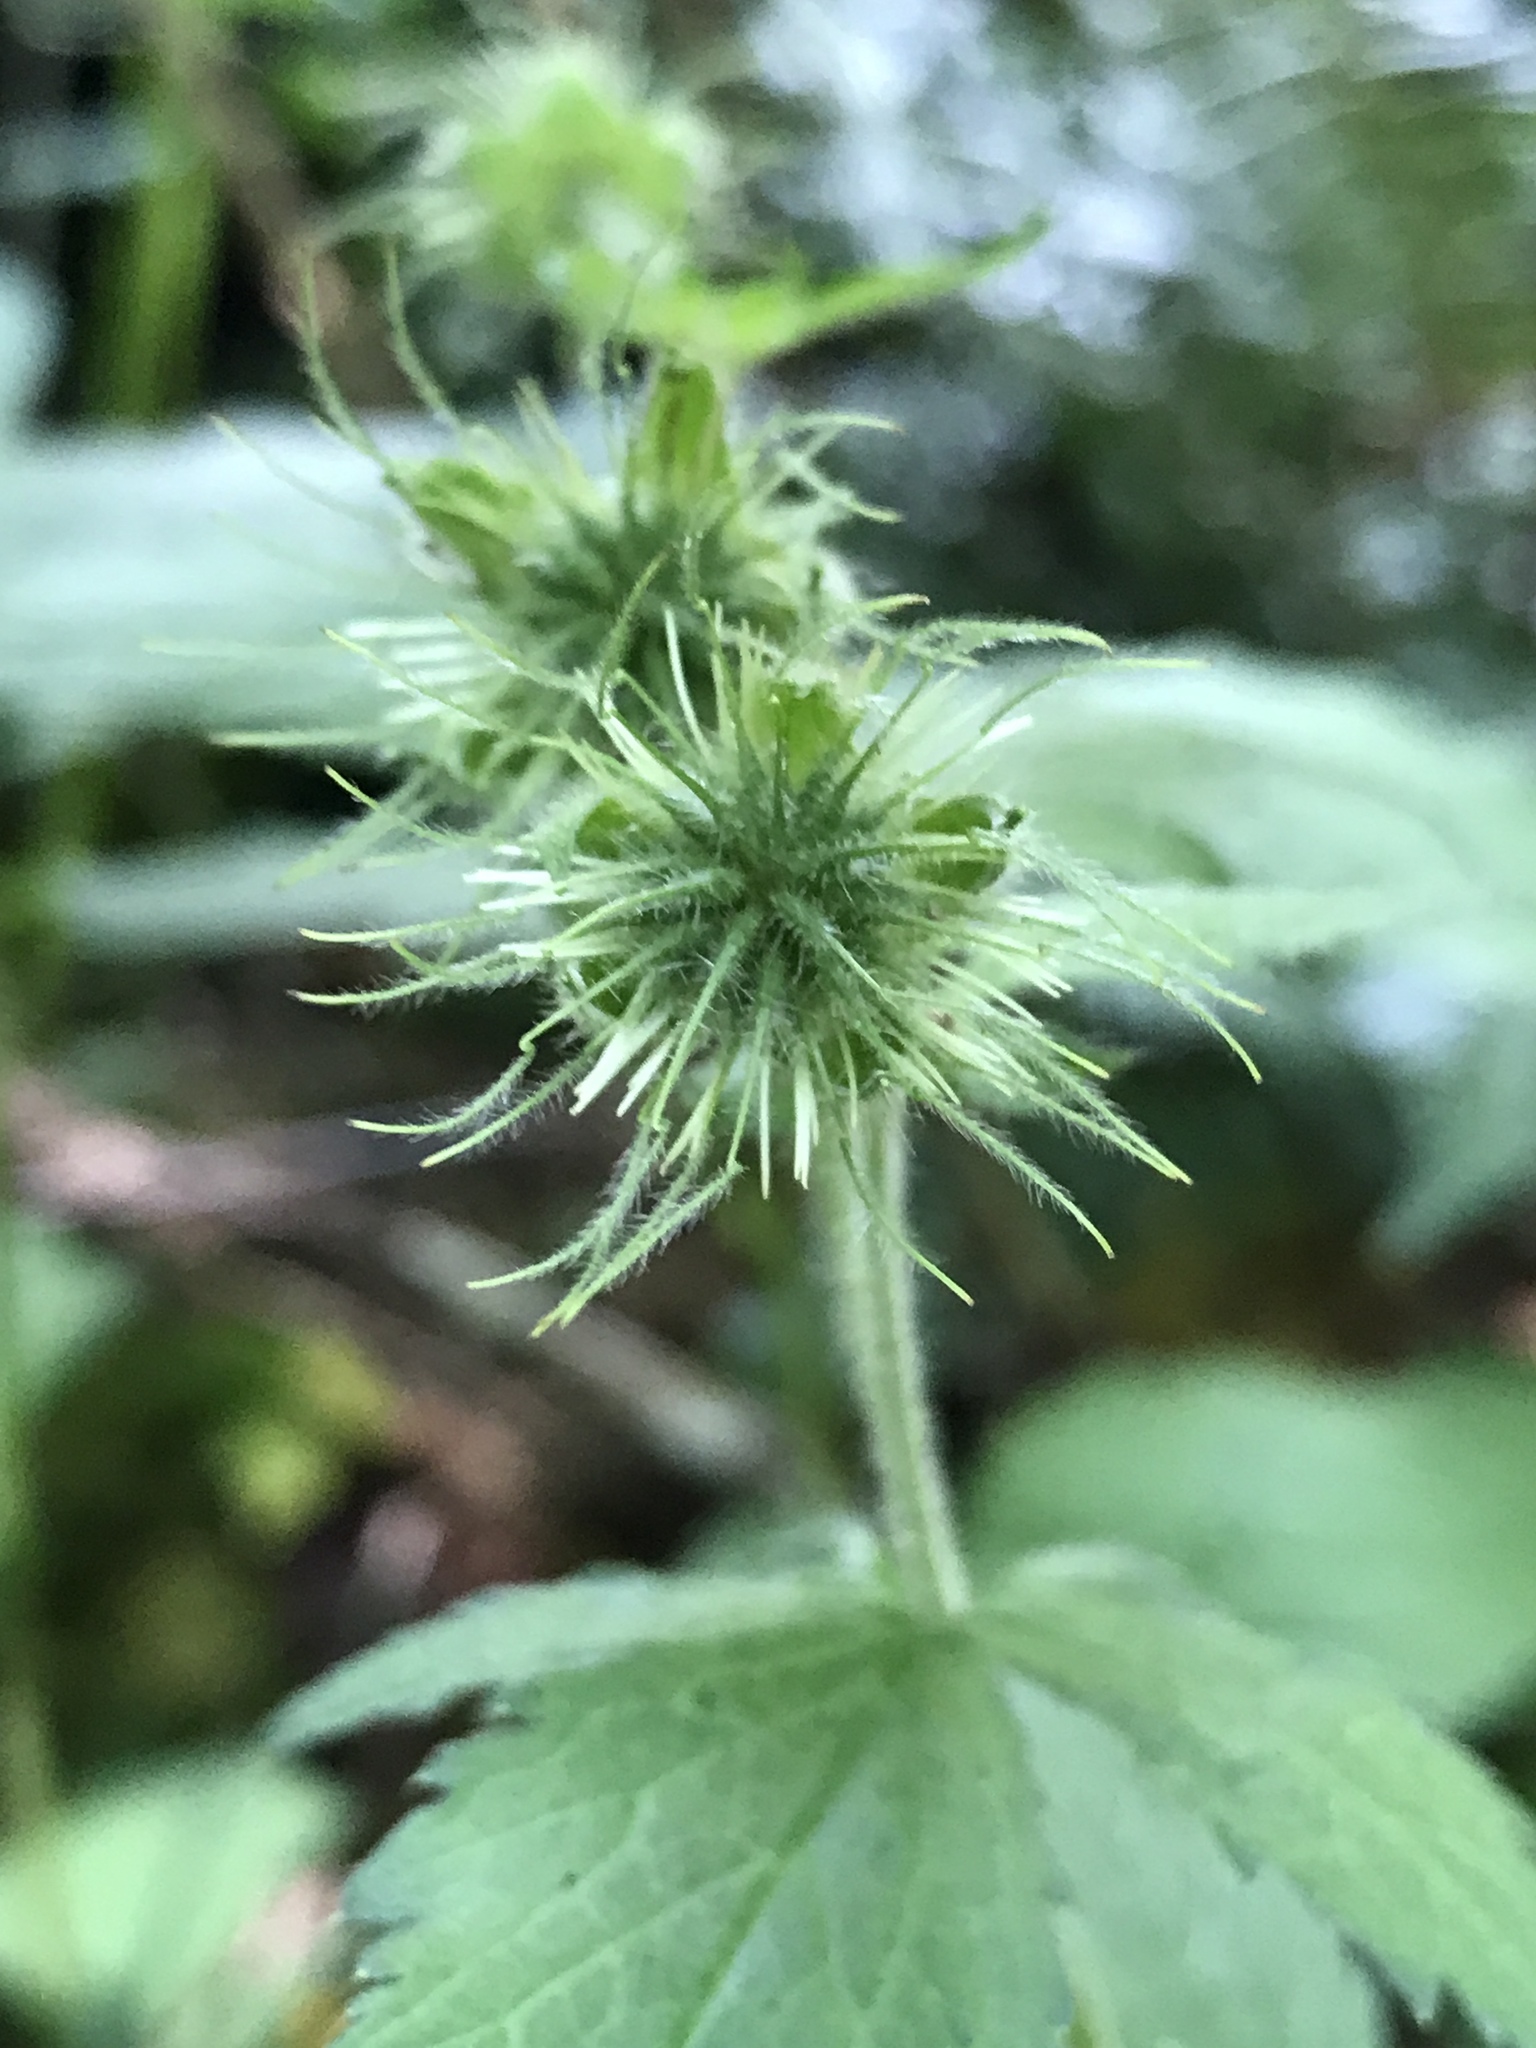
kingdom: Plantae
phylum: Tracheophyta
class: Magnoliopsida
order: Rosales
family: Rosaceae
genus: Geum
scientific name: Geum geniculatum
